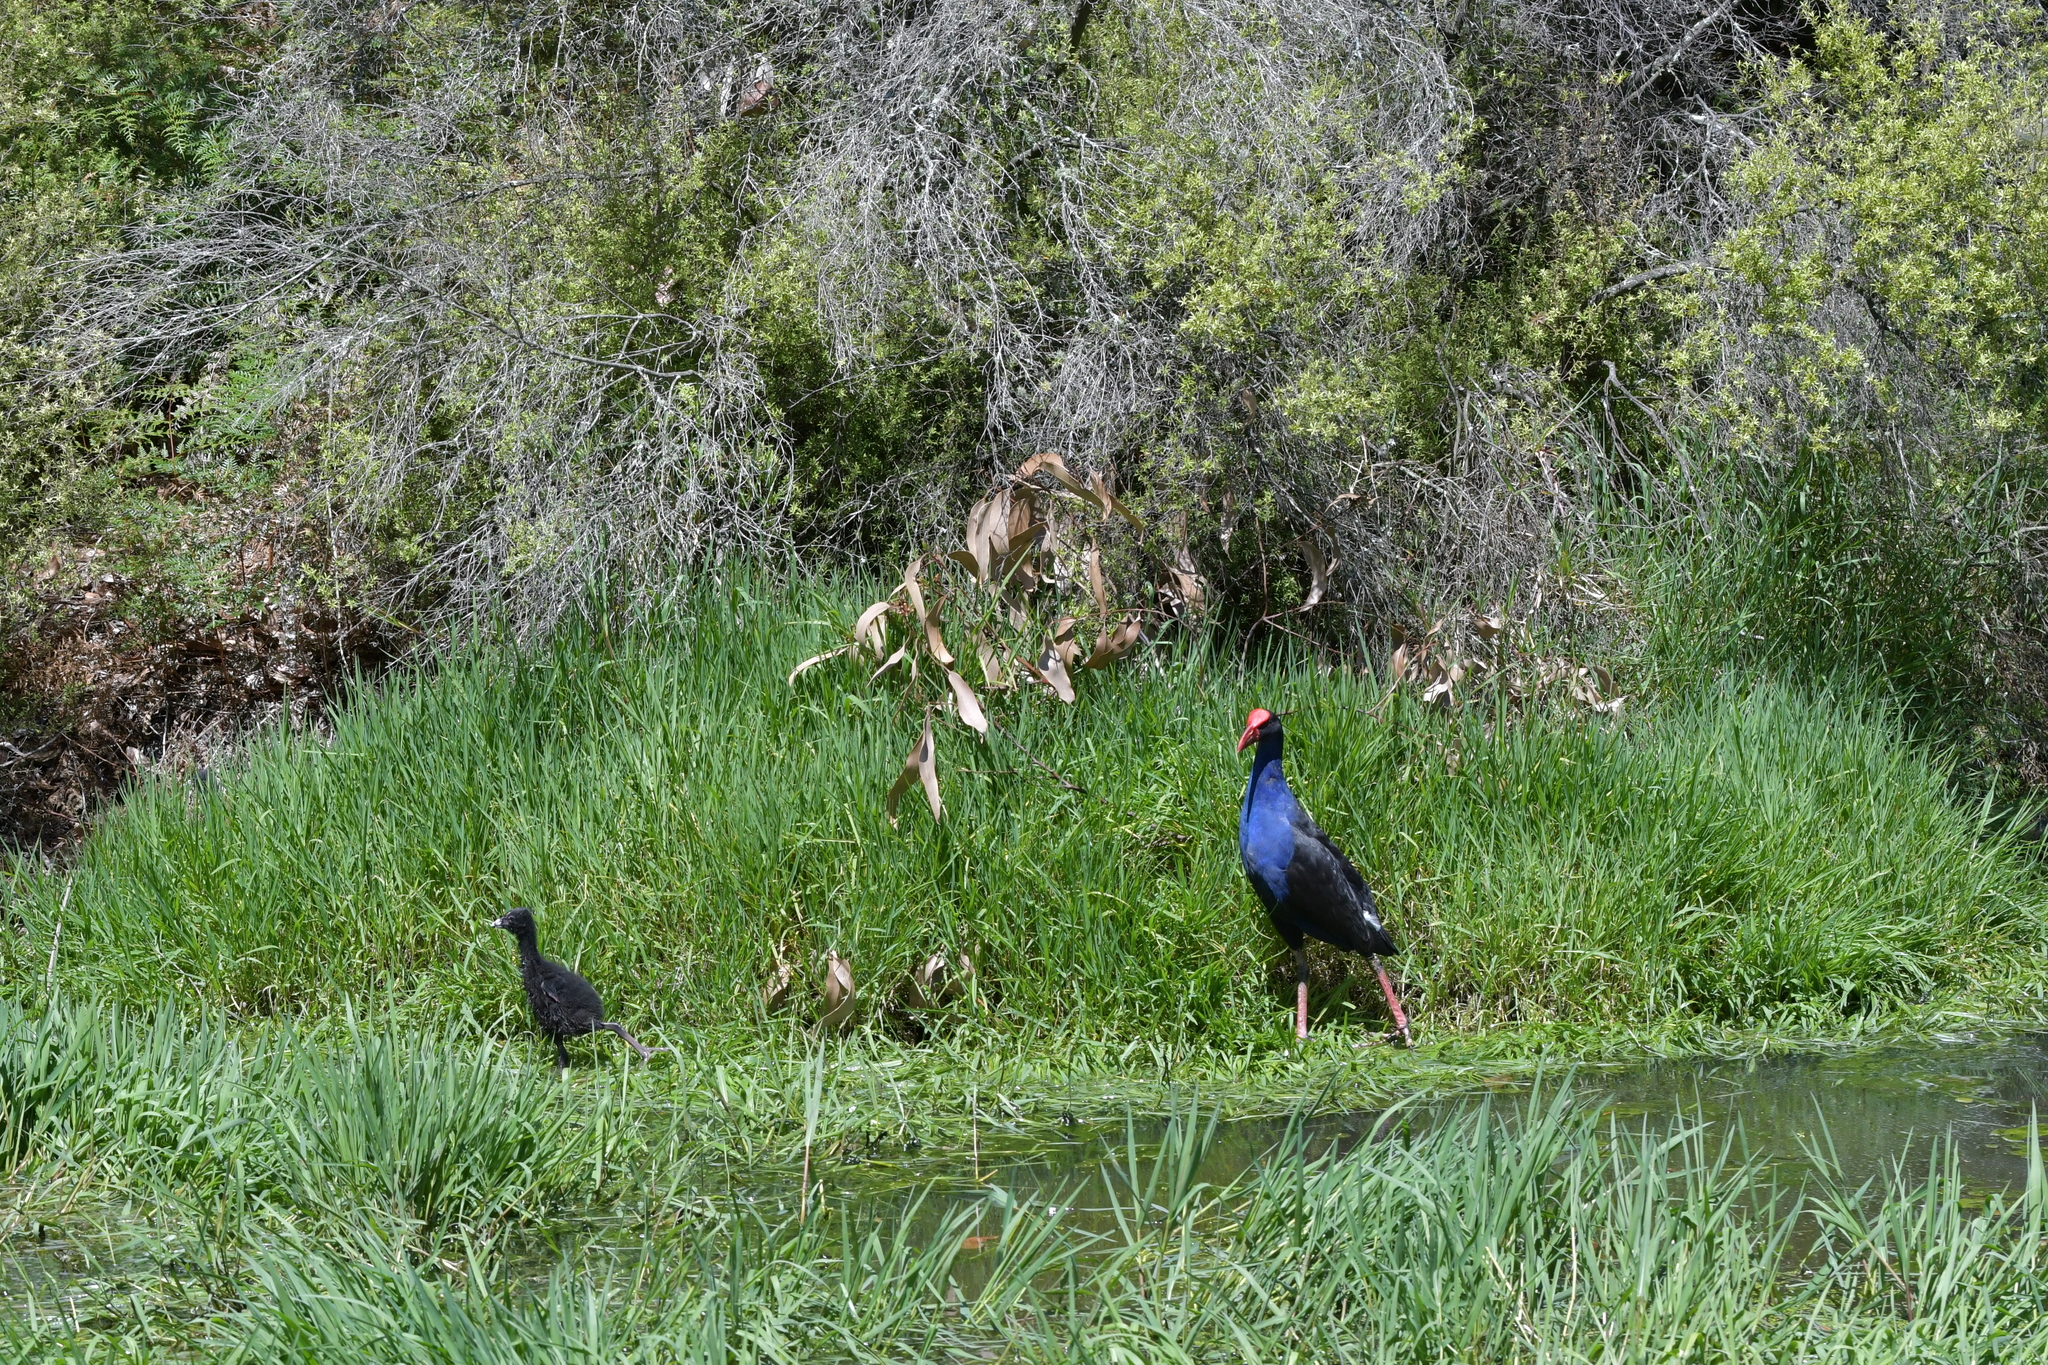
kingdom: Animalia
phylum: Chordata
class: Aves
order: Gruiformes
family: Rallidae
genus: Porphyrio
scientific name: Porphyrio melanotus
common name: Australasian swamphen
